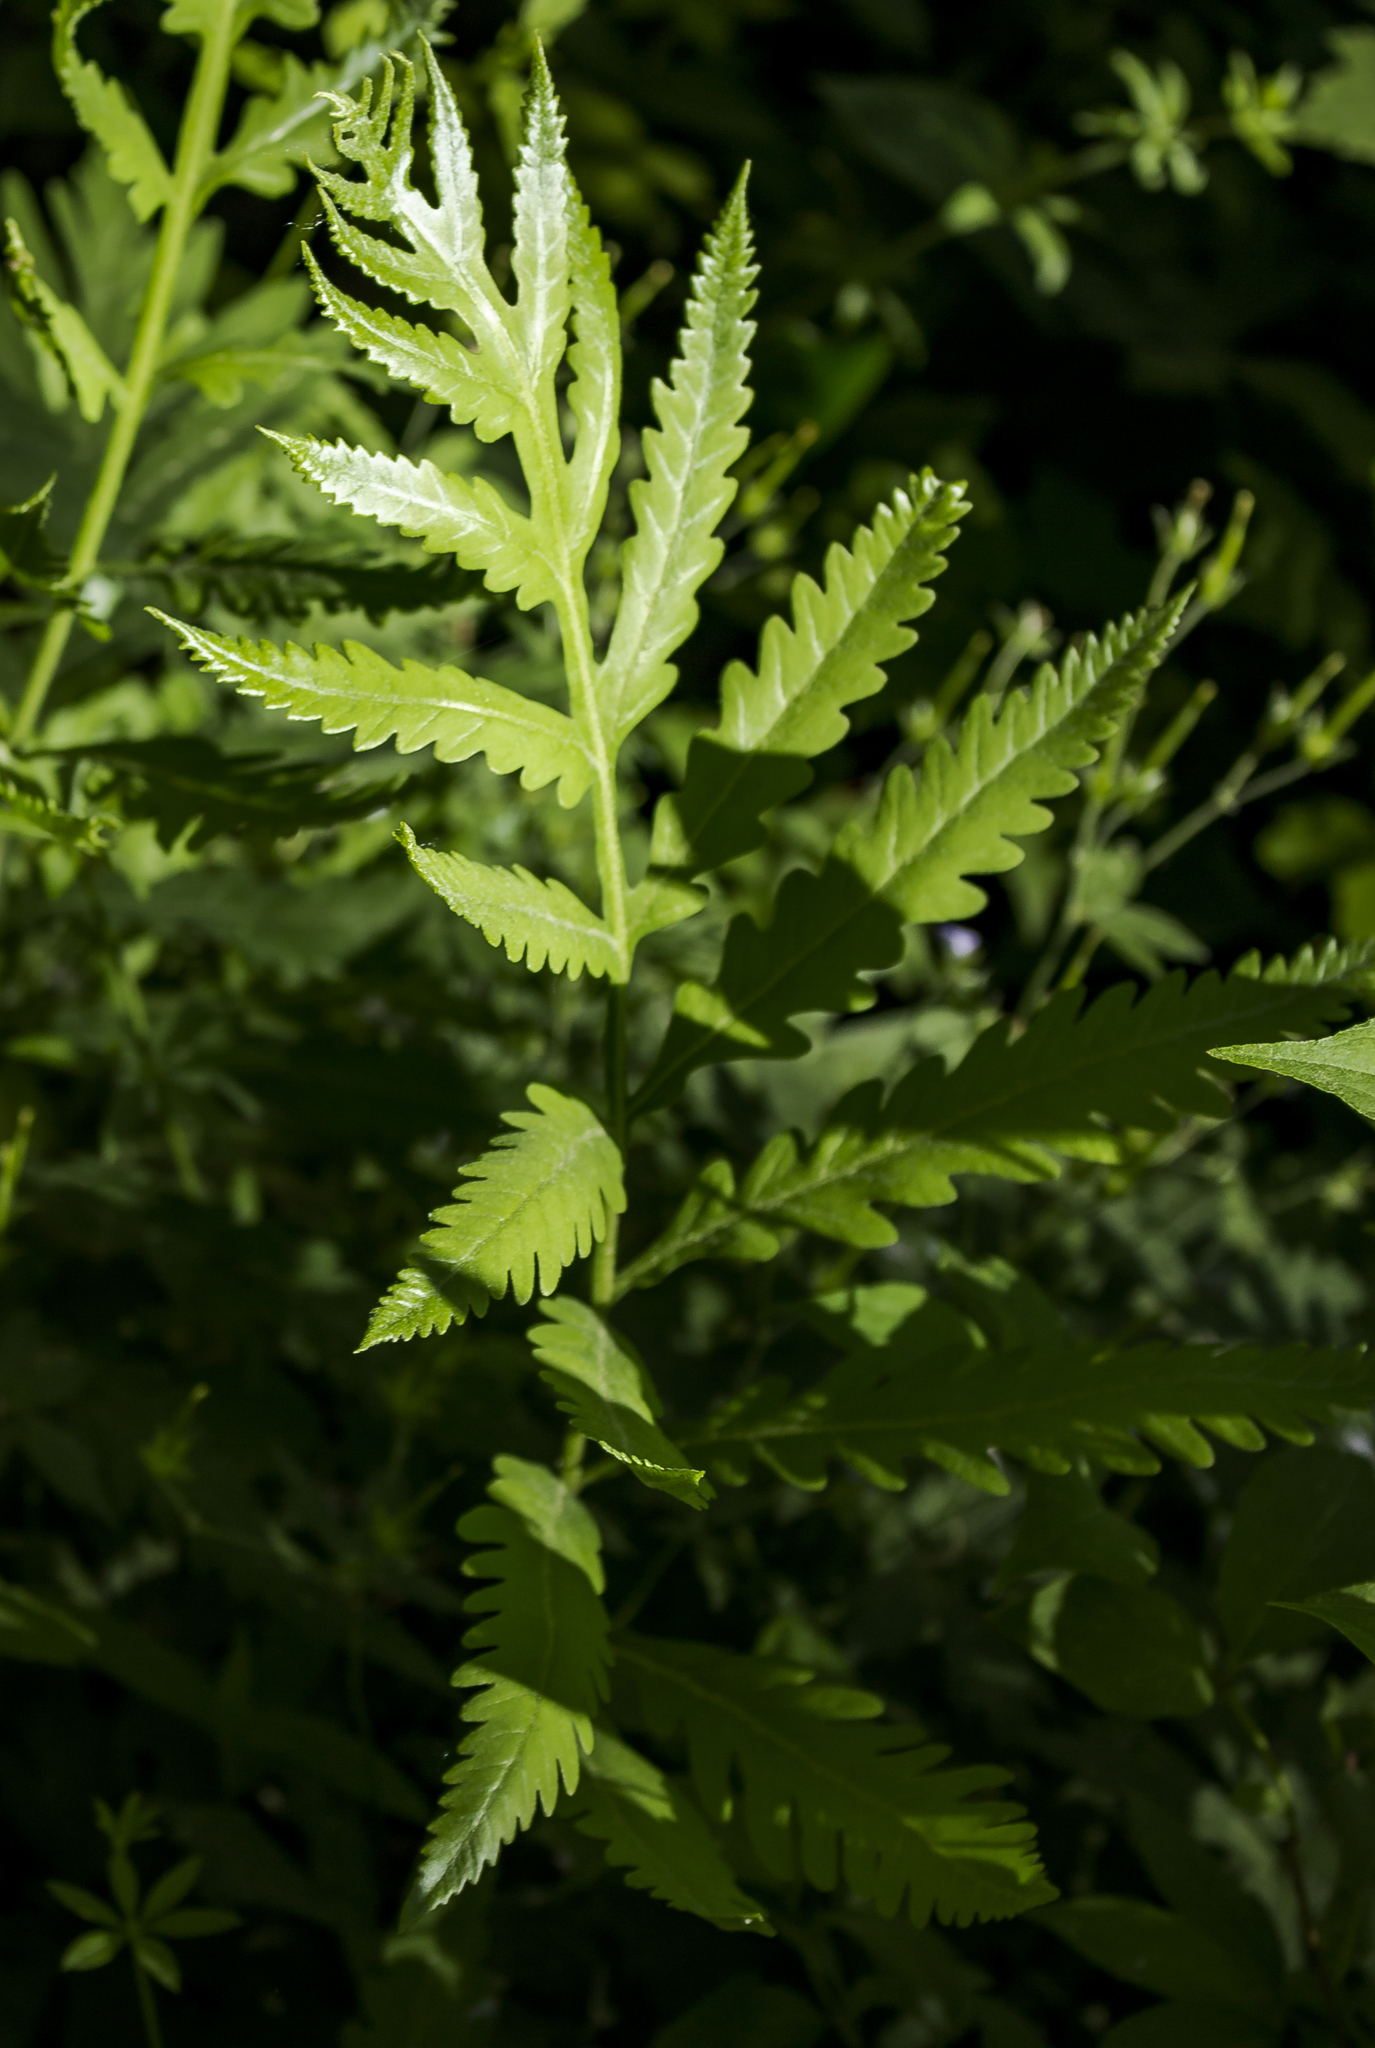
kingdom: Plantae
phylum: Tracheophyta
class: Polypodiopsida
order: Polypodiales
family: Onocleaceae
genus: Onoclea
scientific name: Onoclea sensibilis
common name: Sensitive fern
